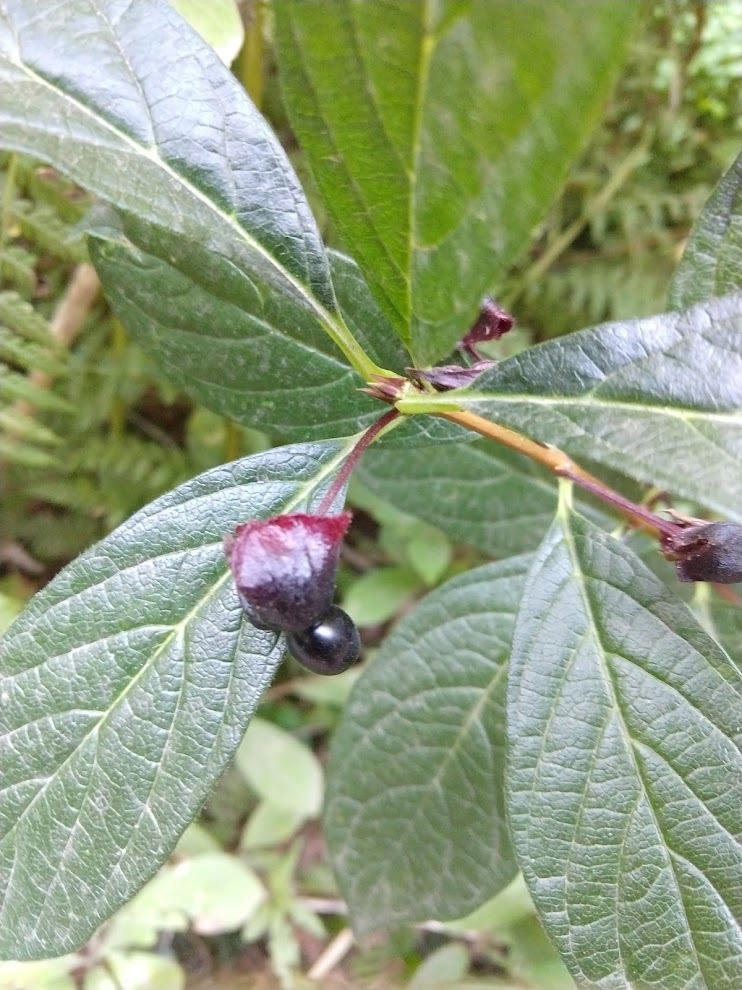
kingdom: Plantae
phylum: Tracheophyta
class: Magnoliopsida
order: Dipsacales
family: Caprifoliaceae
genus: Lonicera
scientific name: Lonicera involucrata
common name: Californian honeysuckle
